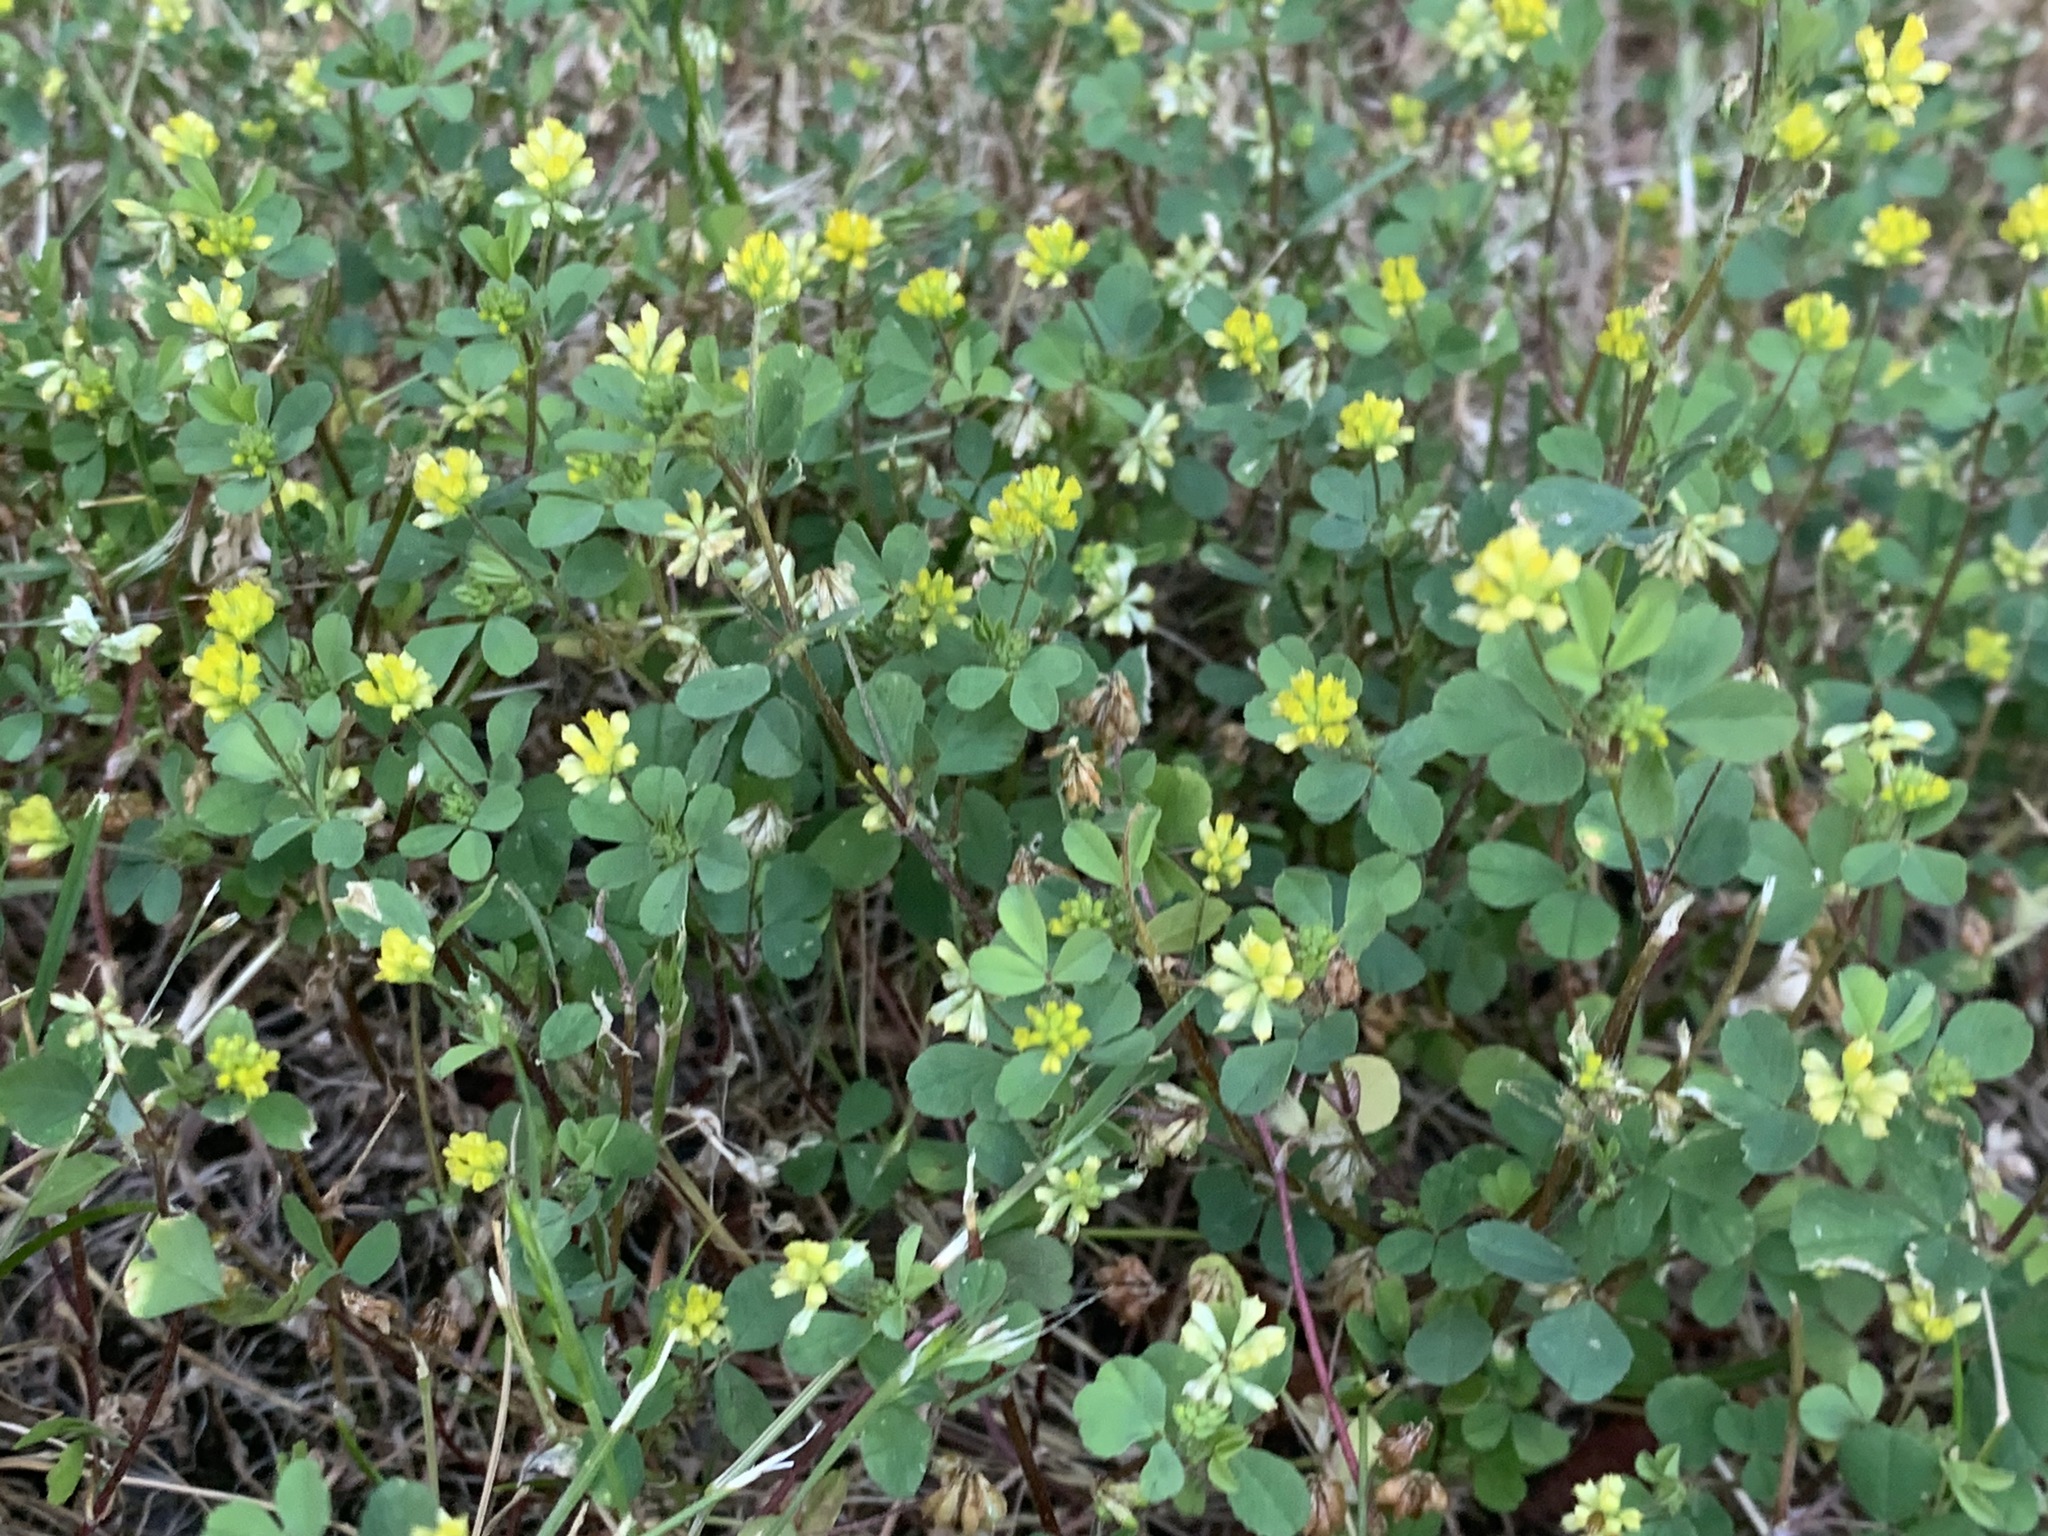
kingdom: Plantae
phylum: Tracheophyta
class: Magnoliopsida
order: Fabales
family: Fabaceae
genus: Trifolium
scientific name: Trifolium dubium
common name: Suckling clover
